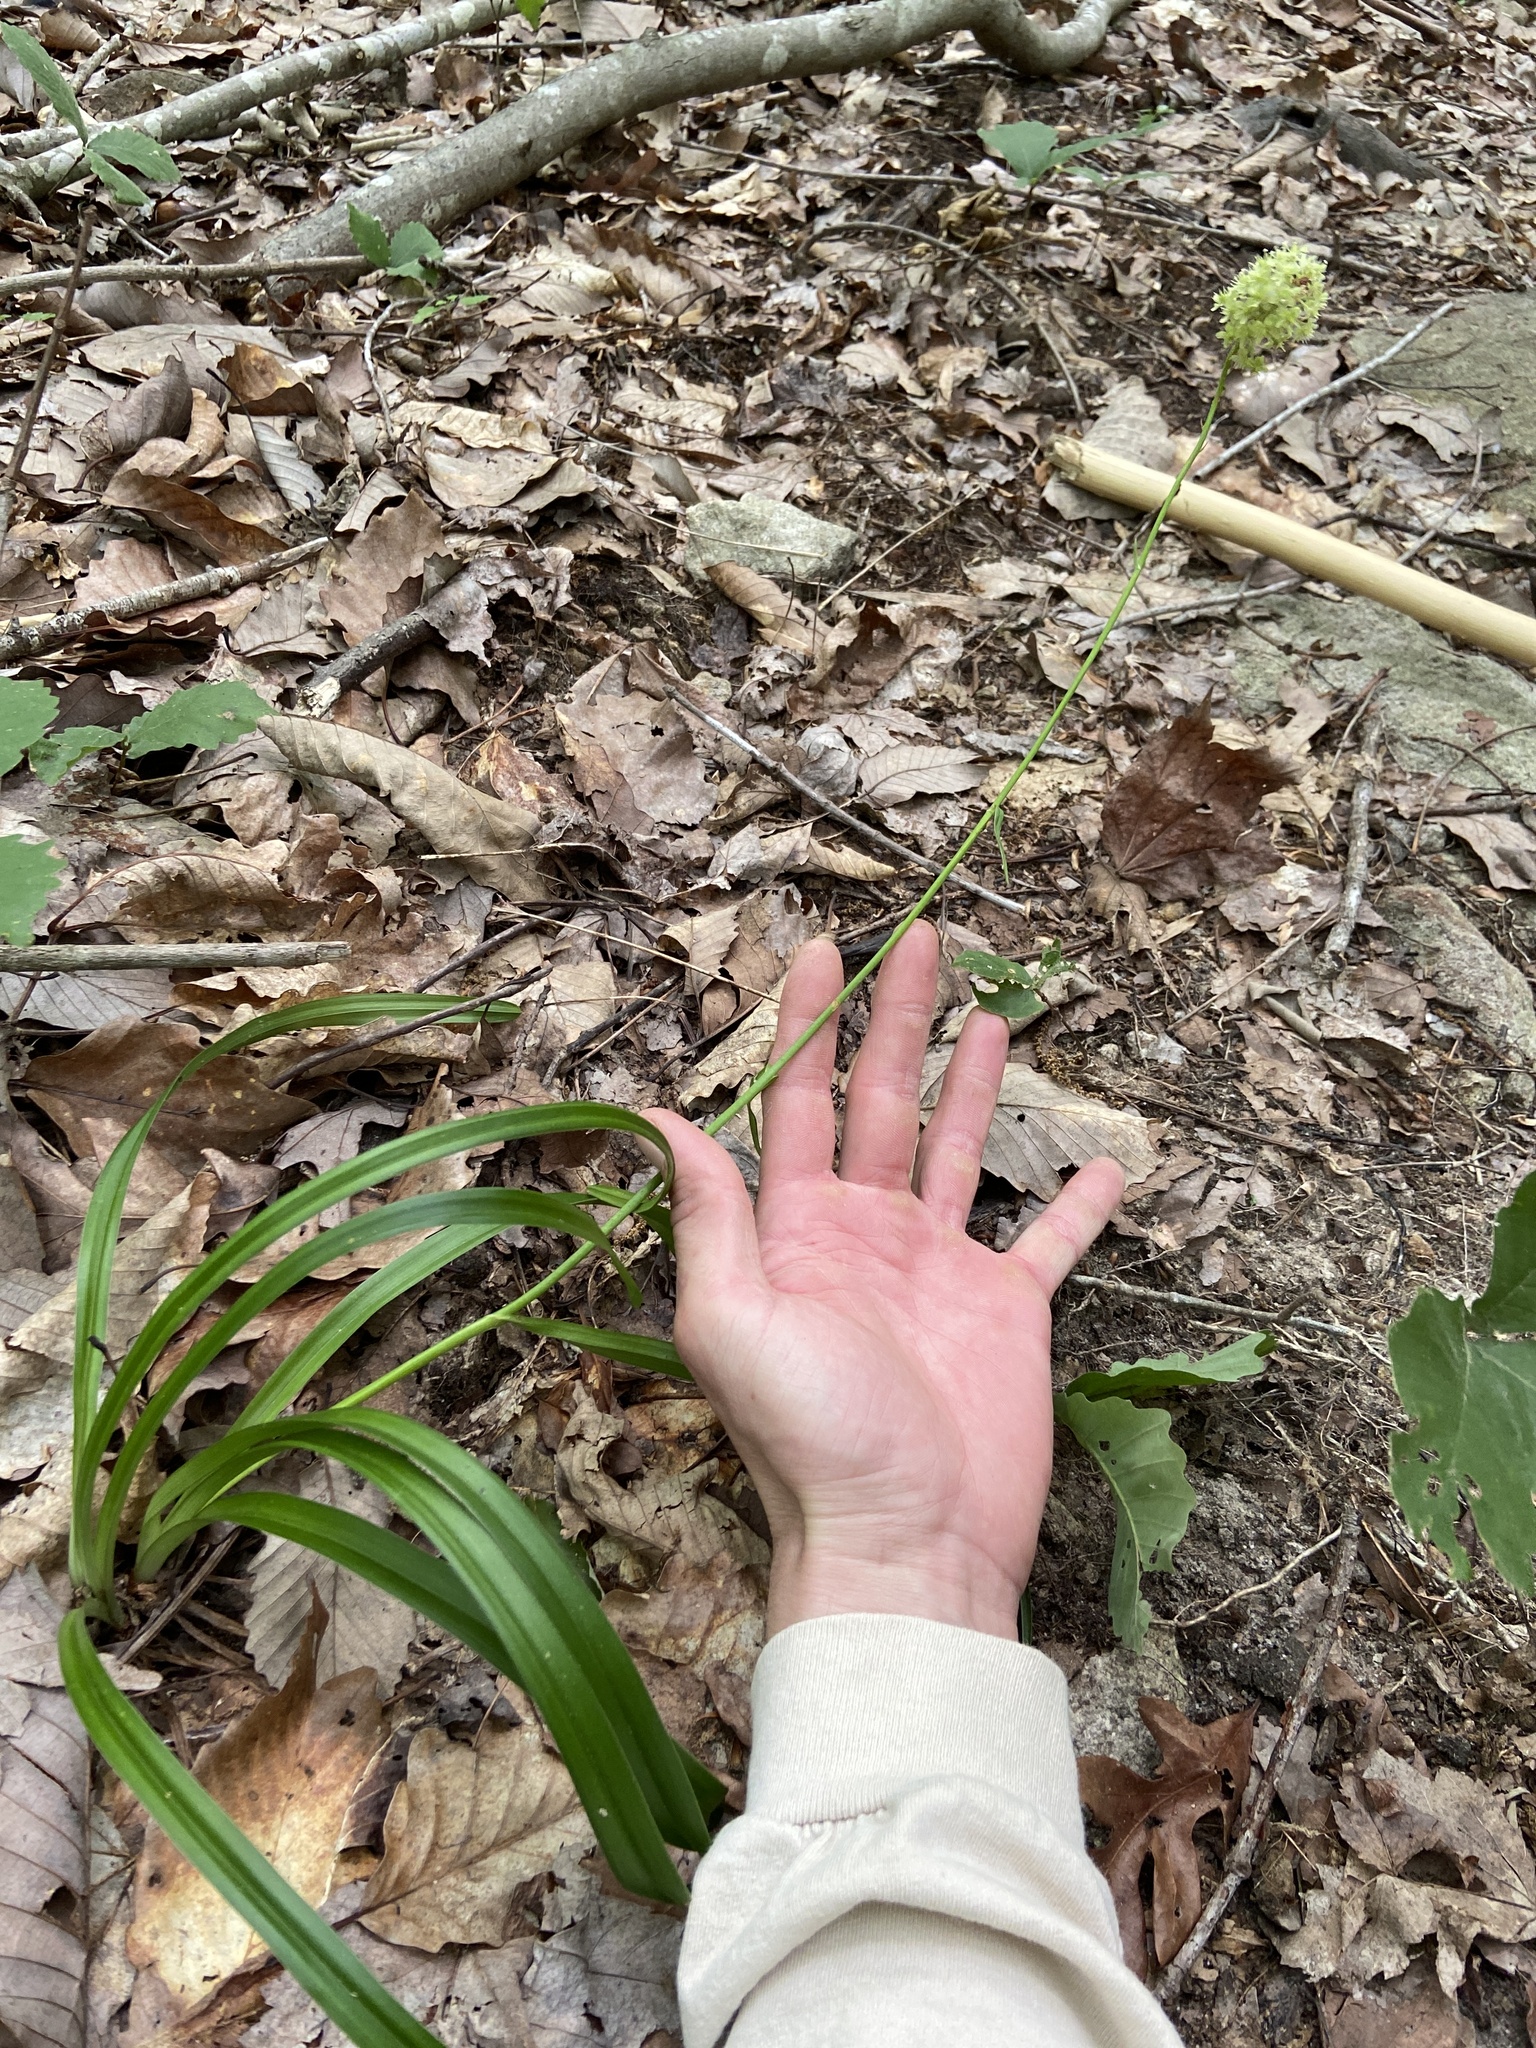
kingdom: Plantae
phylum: Tracheophyta
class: Liliopsida
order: Liliales
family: Melanthiaceae
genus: Amianthium
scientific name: Amianthium muscitoxicum
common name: Fly-poison
